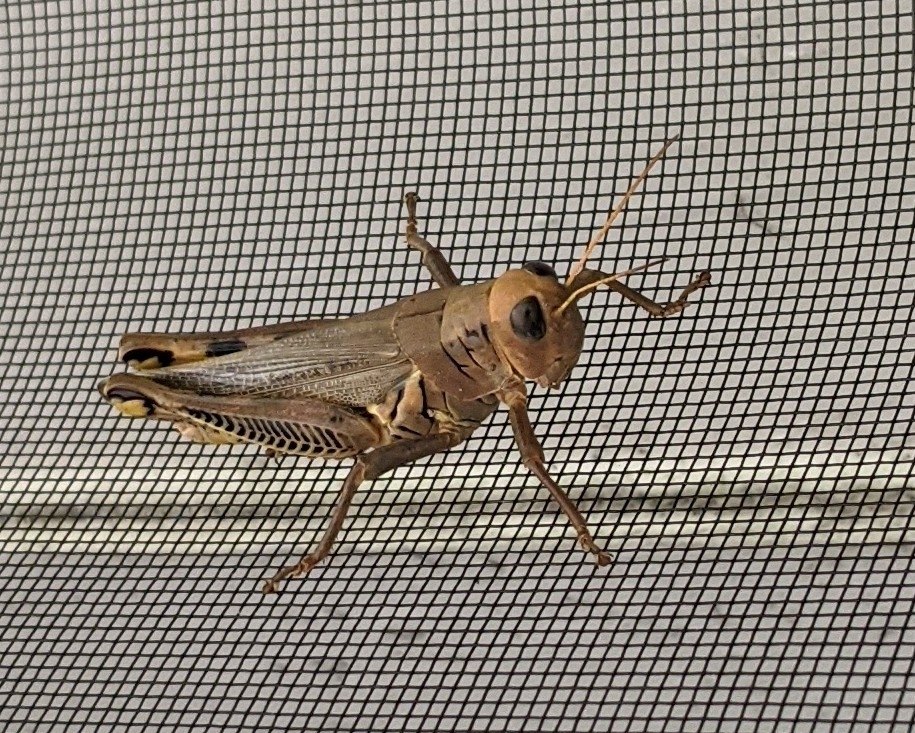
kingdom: Animalia
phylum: Arthropoda
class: Insecta
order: Orthoptera
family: Acrididae
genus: Melanoplus
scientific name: Melanoplus differentialis
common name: Differential grasshopper
